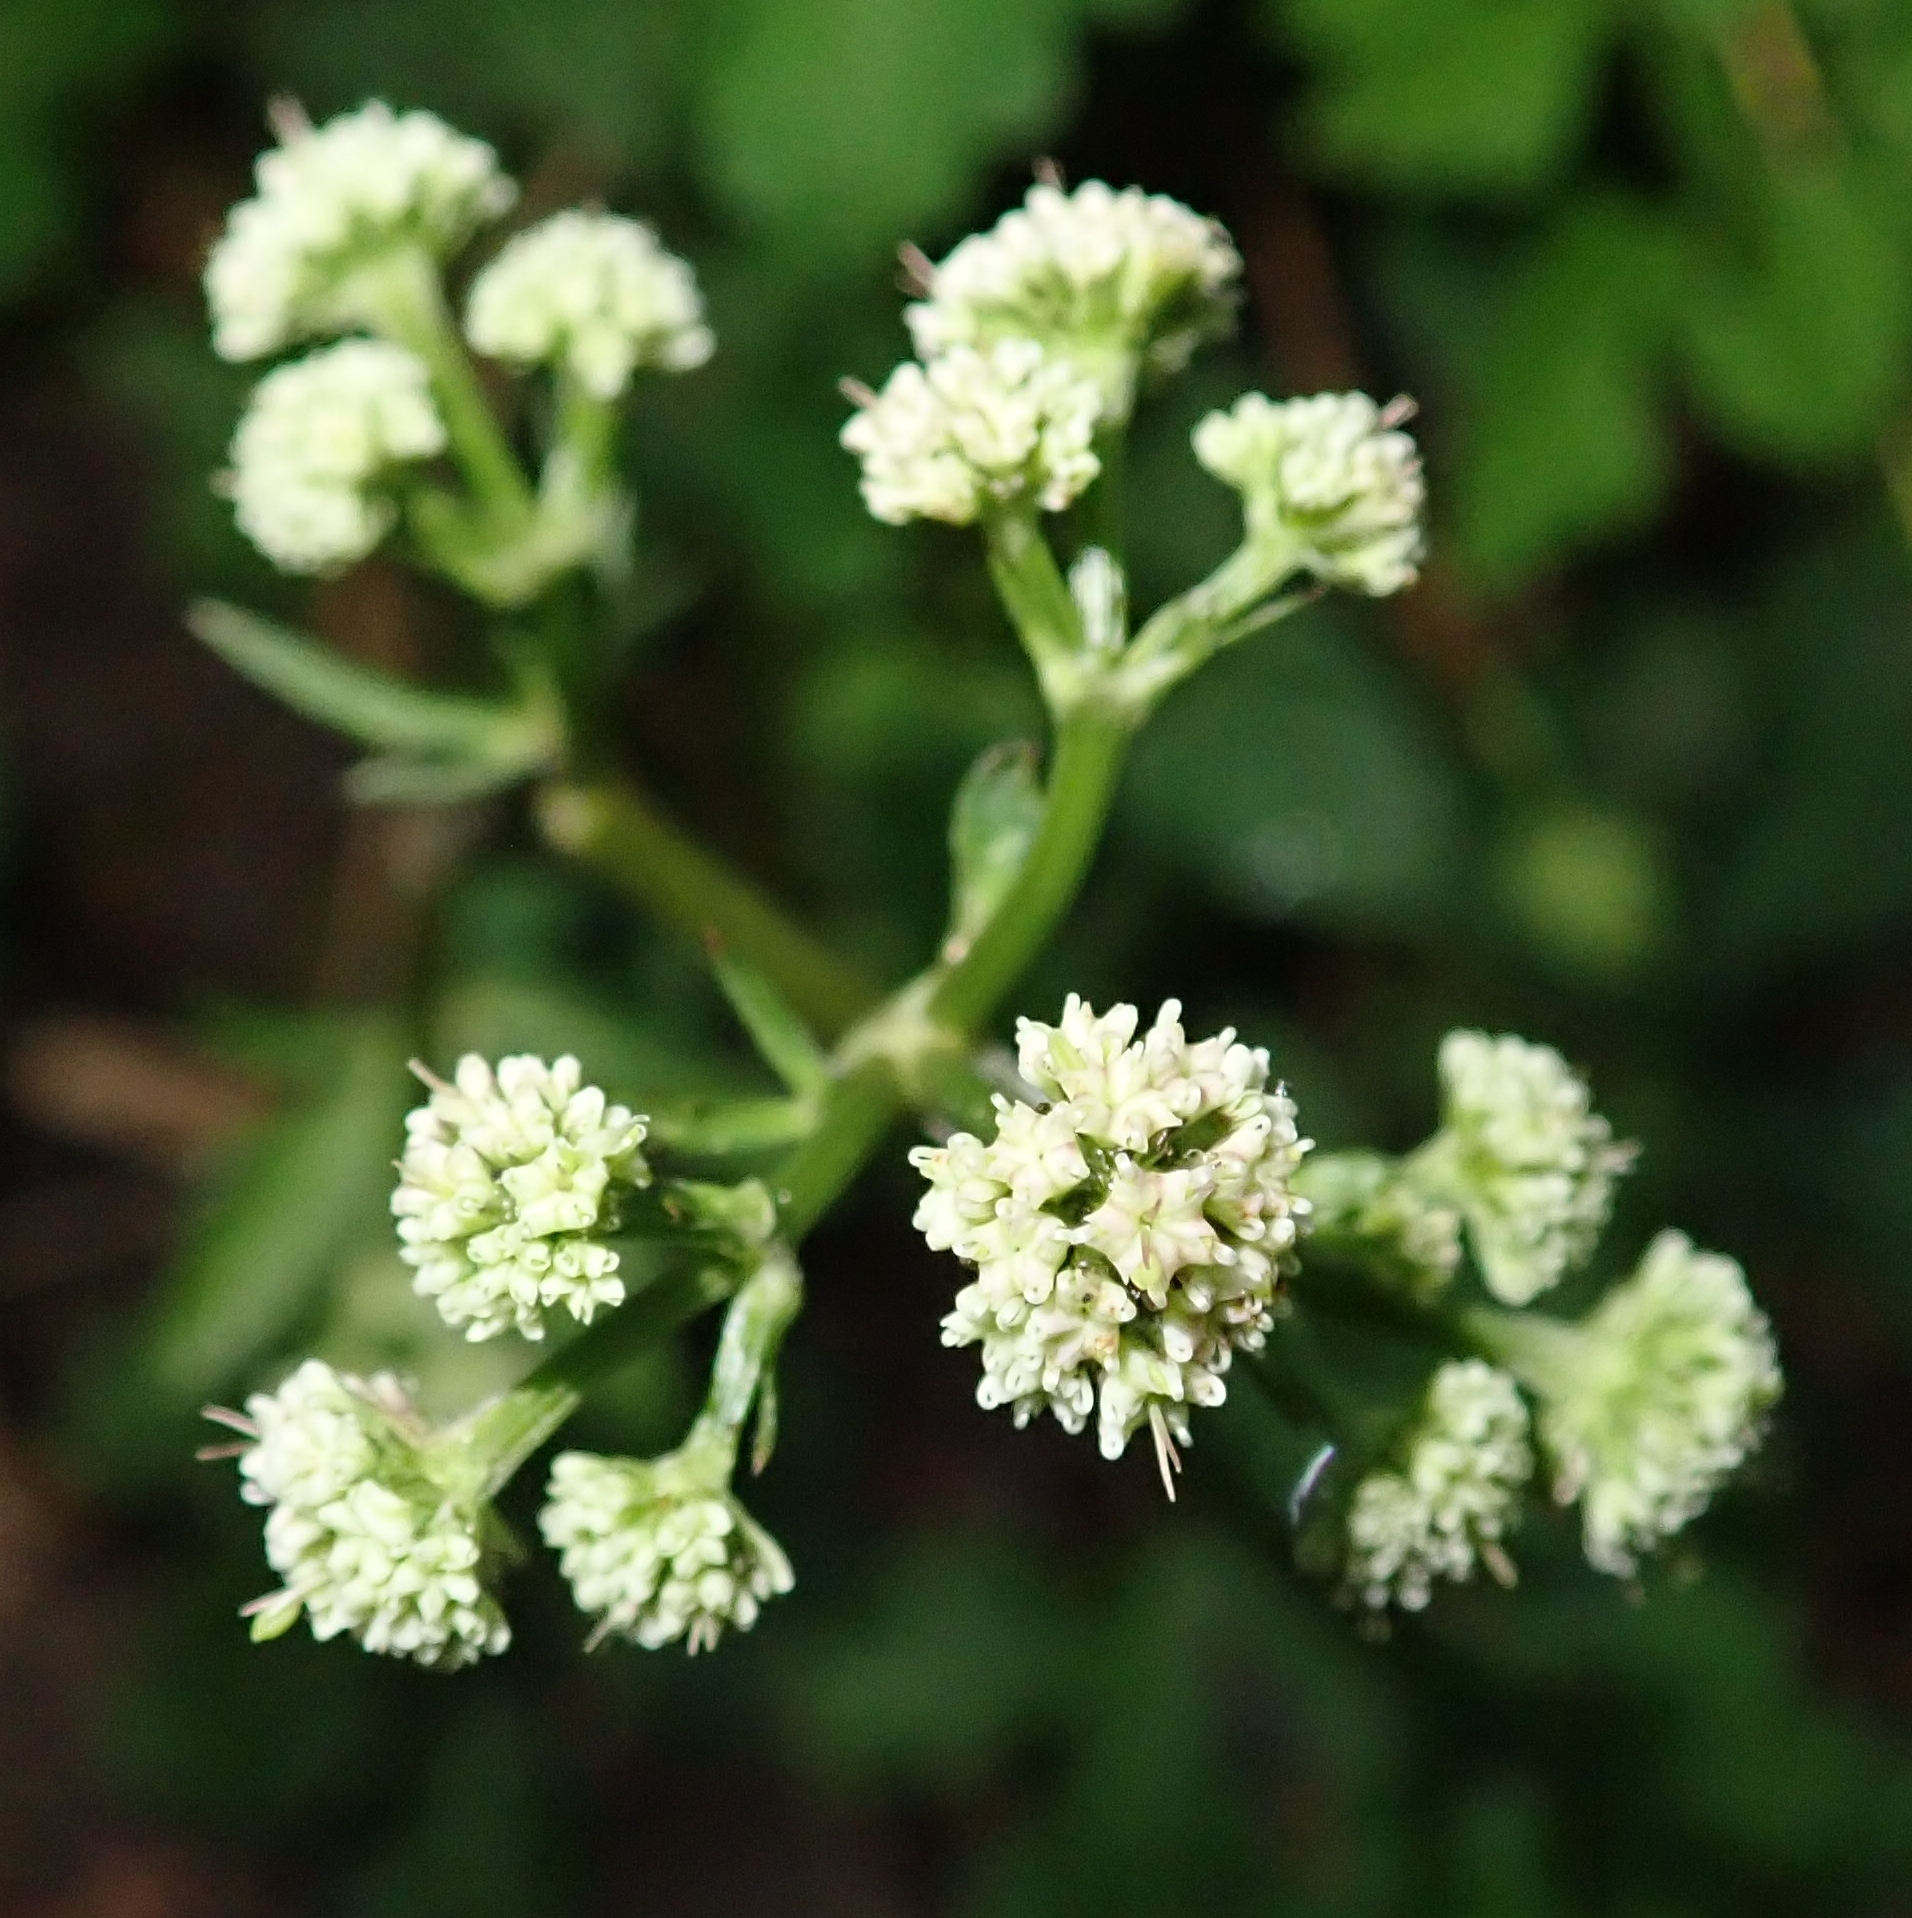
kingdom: Plantae
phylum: Tracheophyta
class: Magnoliopsida
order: Apiales
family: Apiaceae
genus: Sanicula
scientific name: Sanicula europaea
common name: Sanicle
